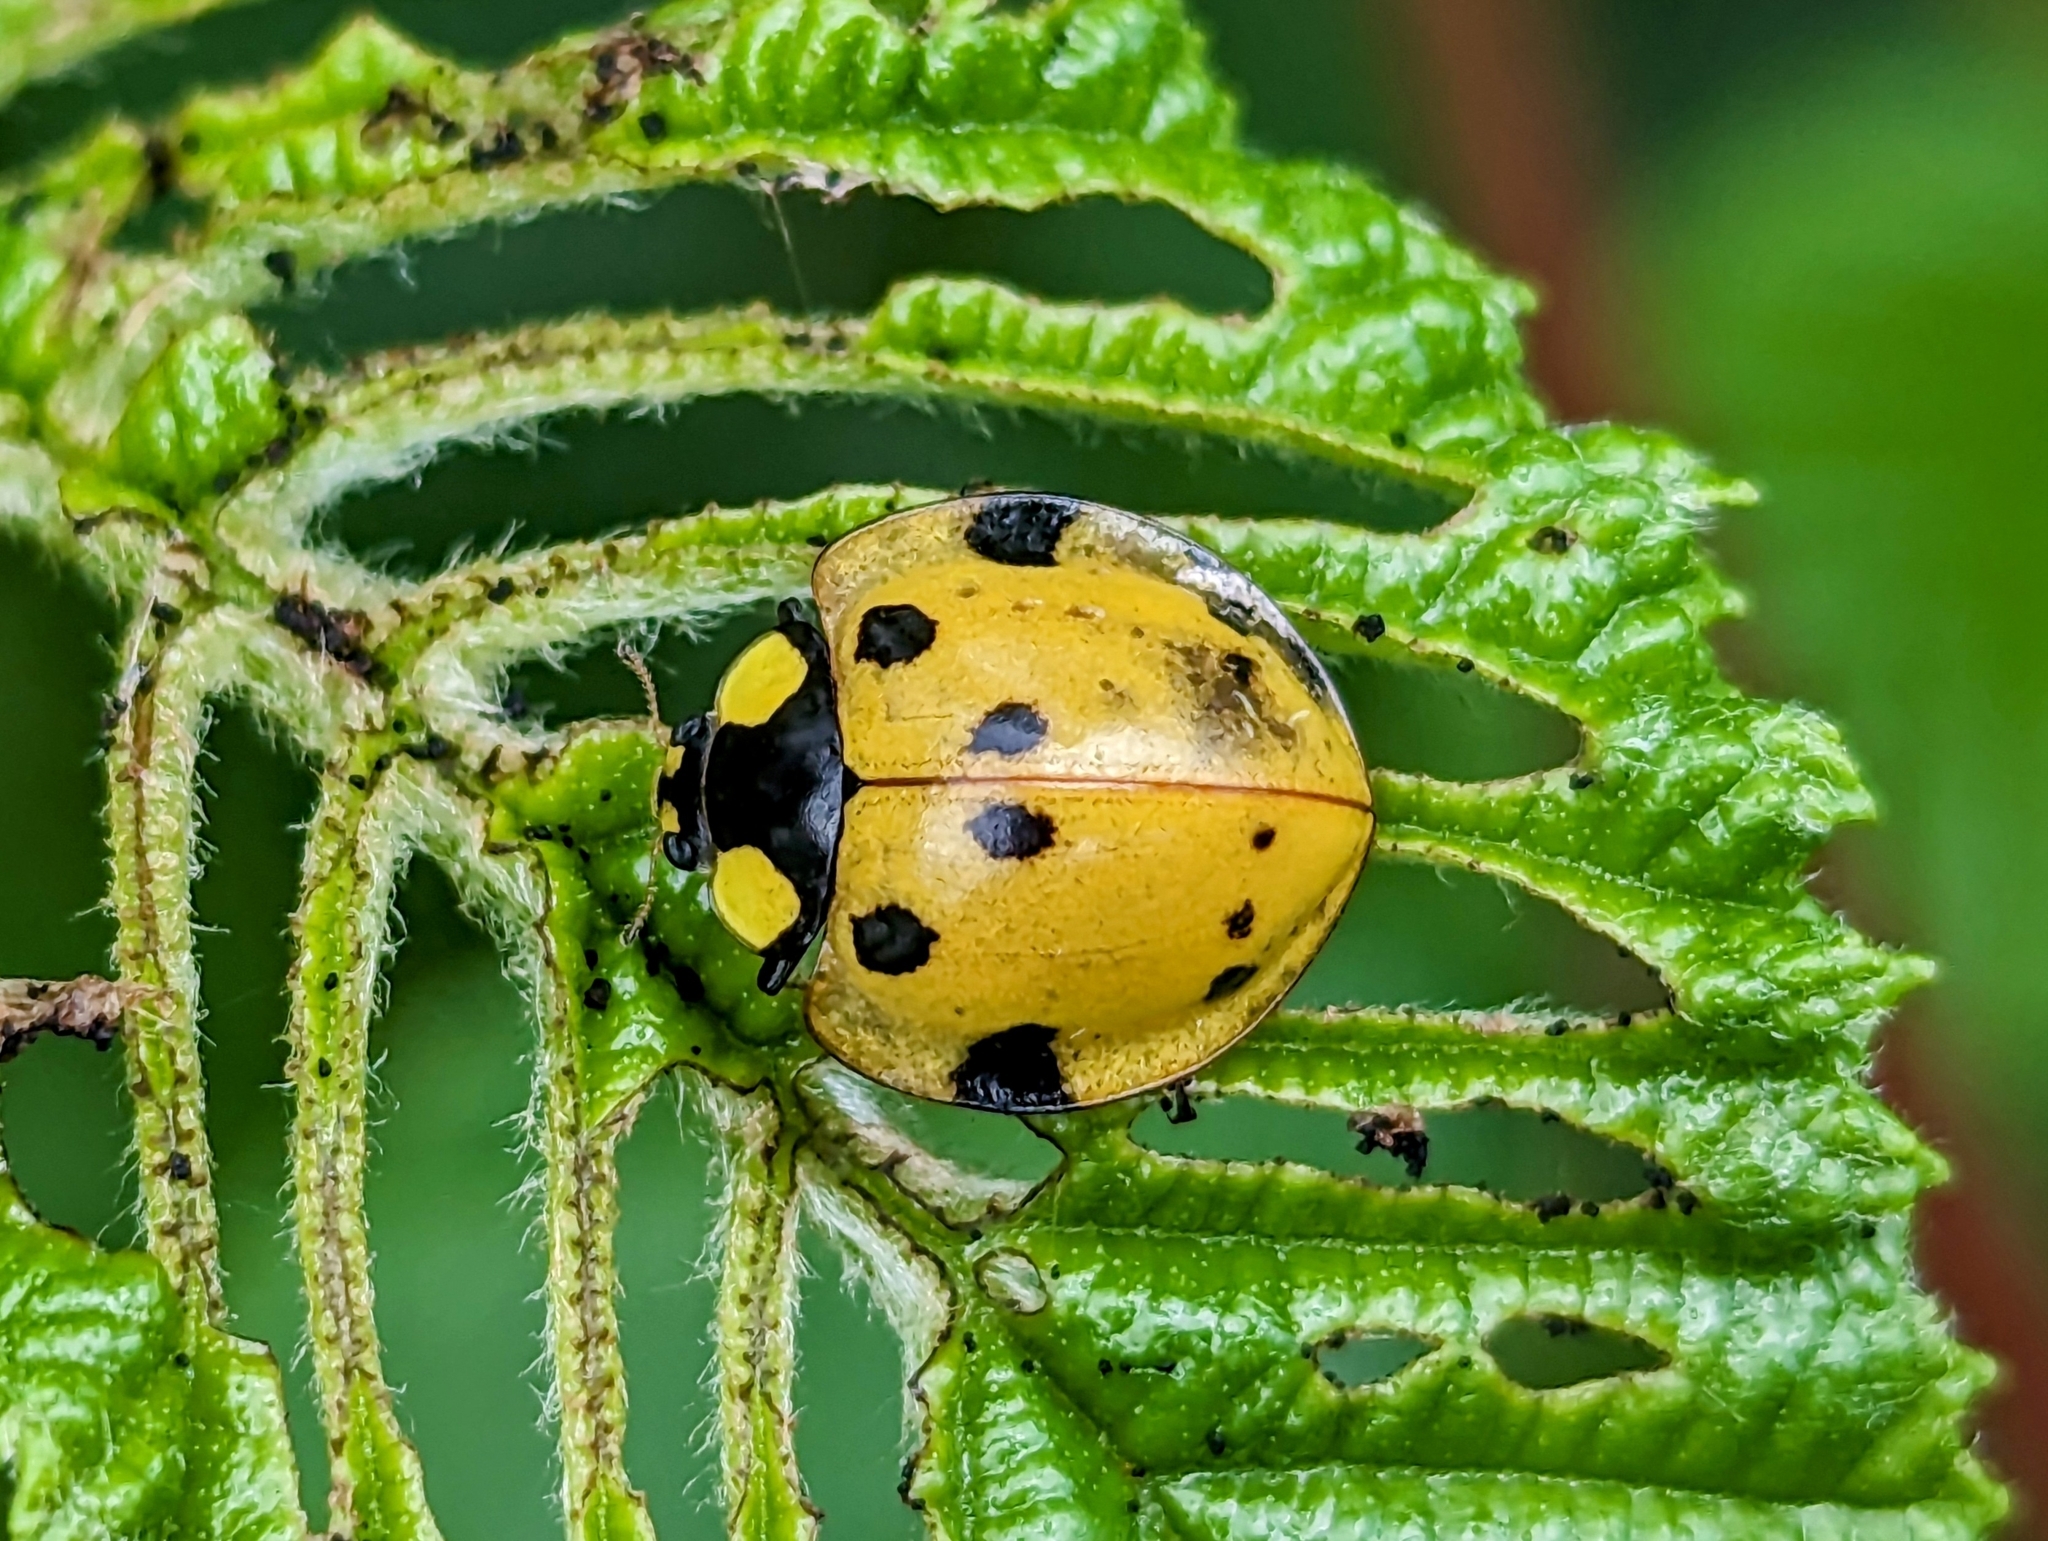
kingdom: Animalia
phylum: Arthropoda
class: Insecta
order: Coleoptera
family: Coccinellidae
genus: Neda
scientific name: Neda norrisi
